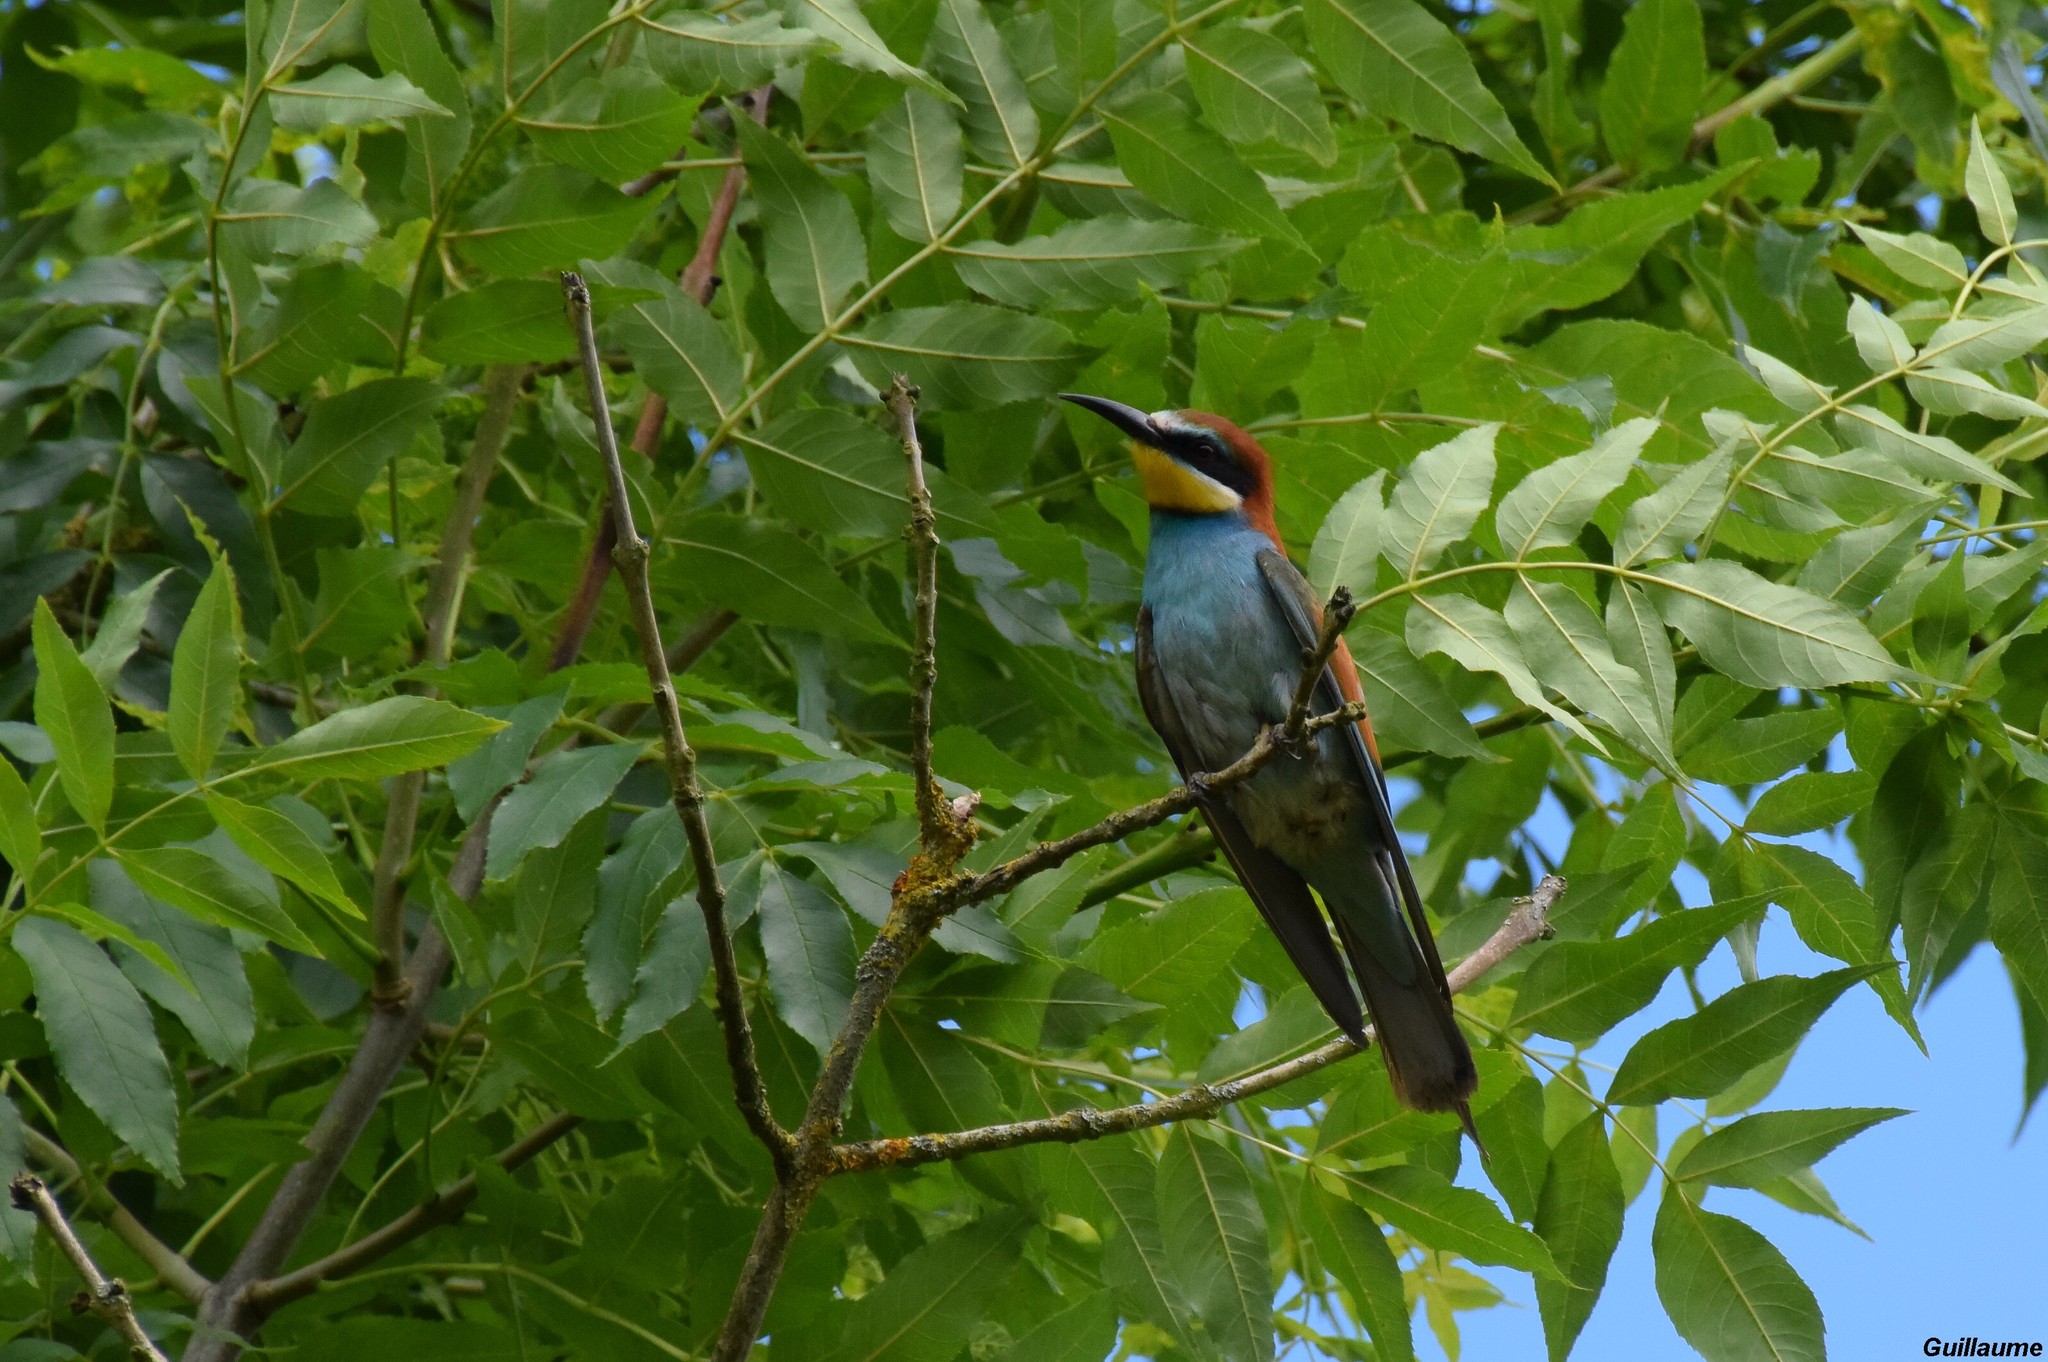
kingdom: Animalia
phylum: Chordata
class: Aves
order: Coraciiformes
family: Meropidae
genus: Merops
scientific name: Merops apiaster
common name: European bee-eater
